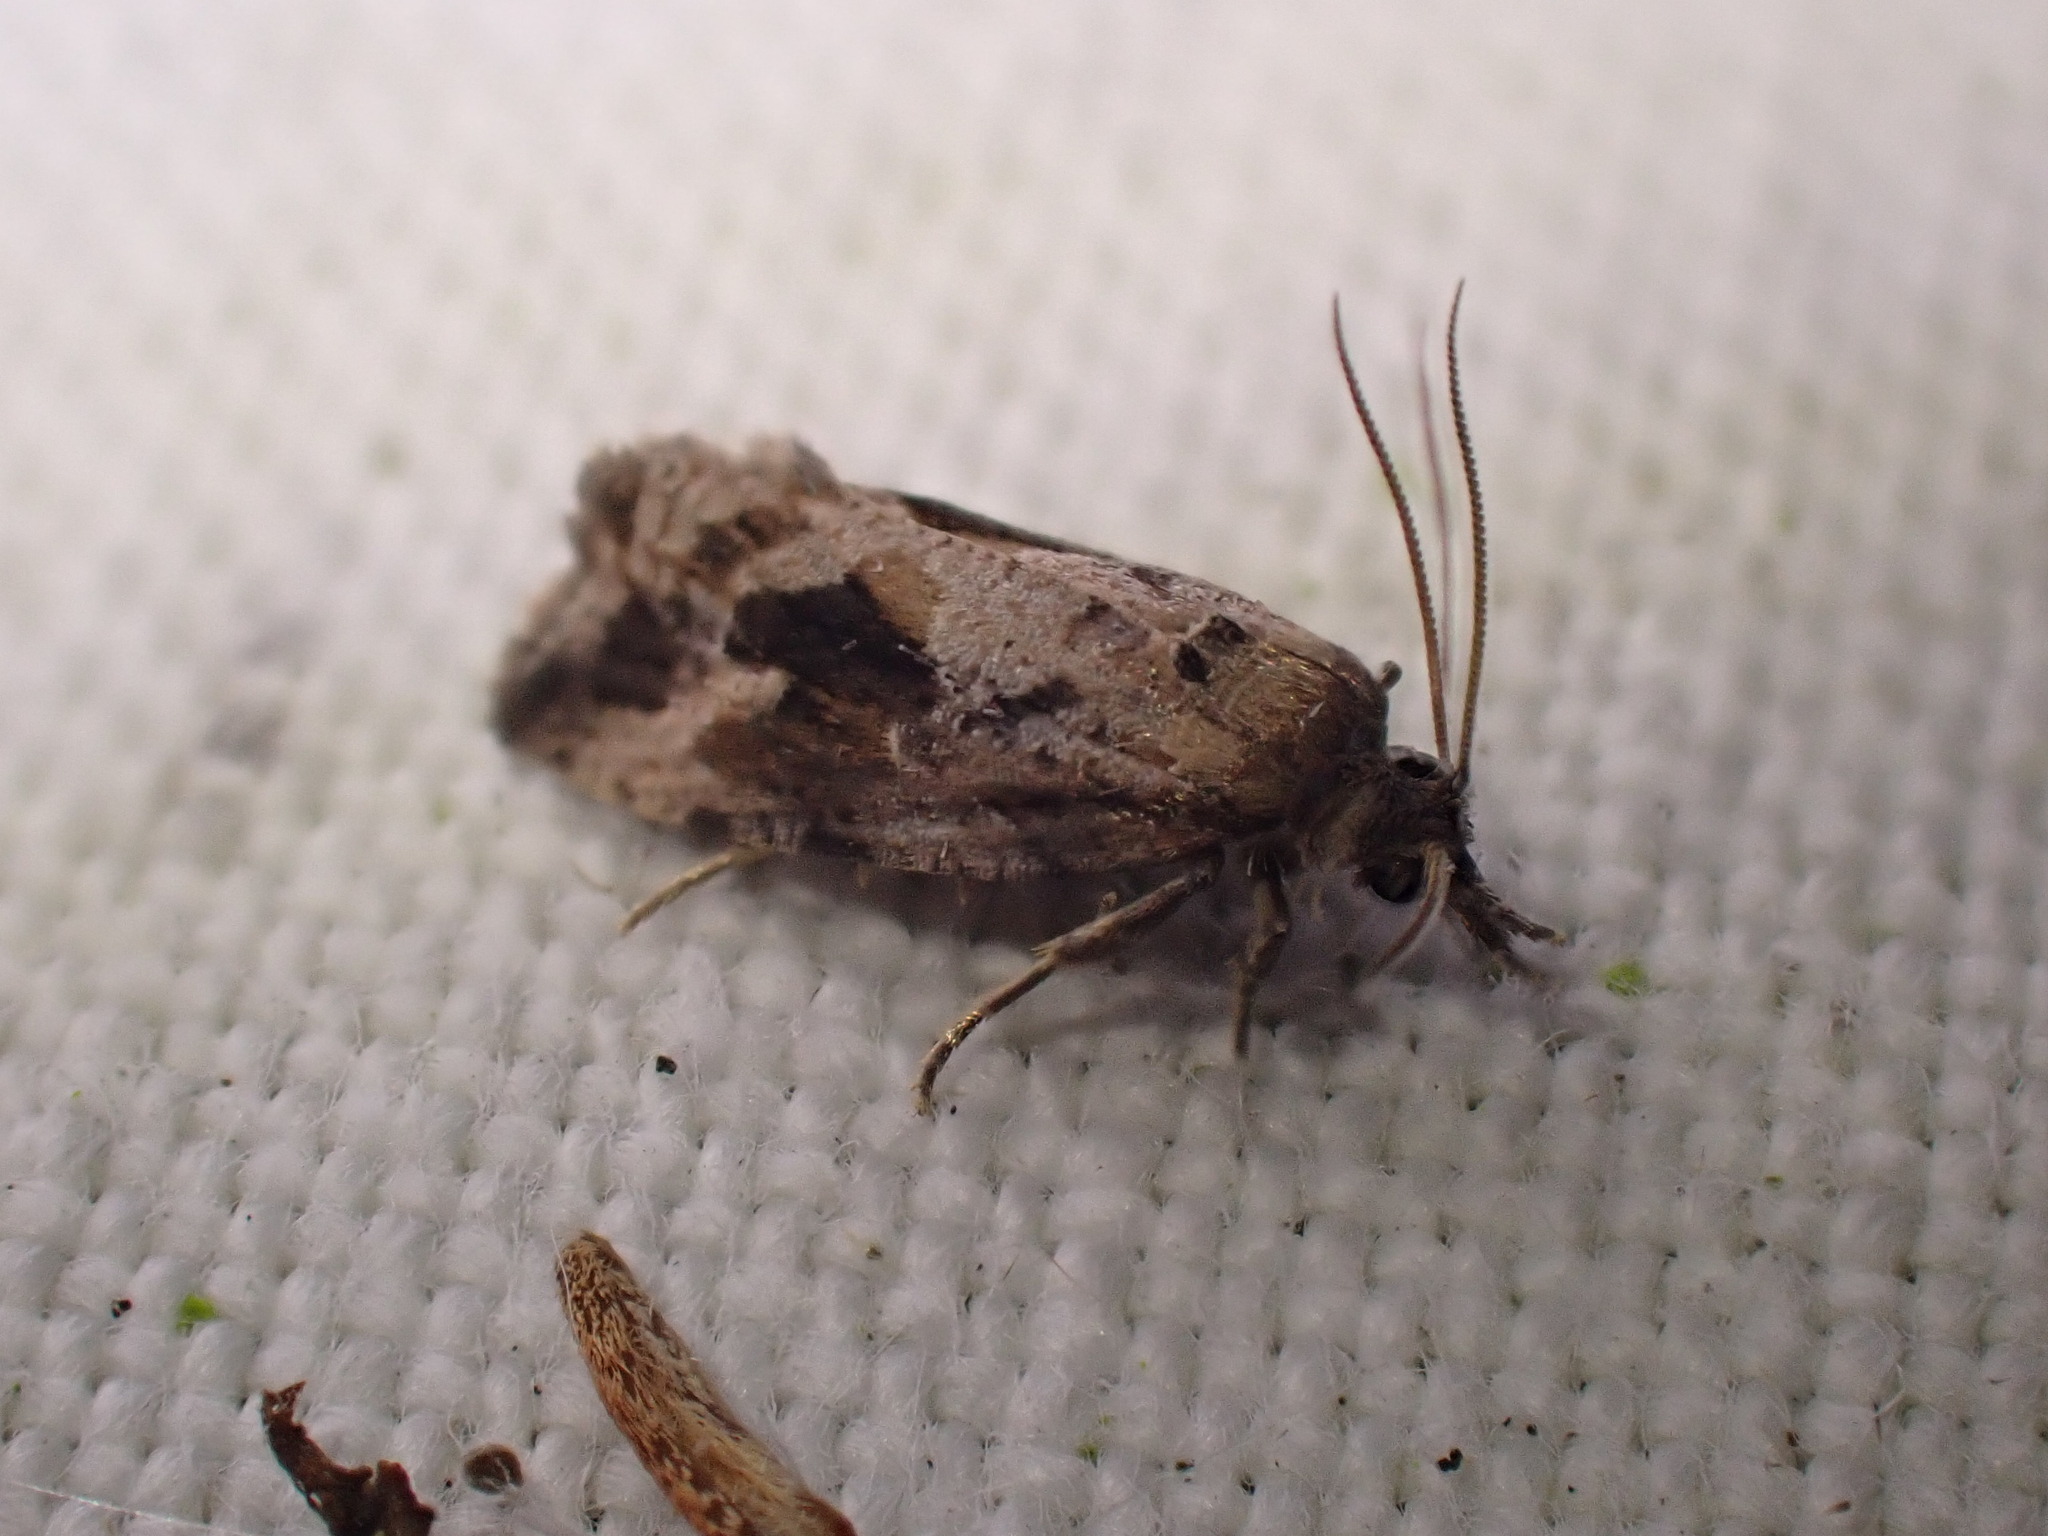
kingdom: Animalia
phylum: Arthropoda
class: Insecta
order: Lepidoptera
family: Tortricidae
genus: Endothenia
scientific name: Endothenia quadrimaculana
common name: Tortricid moth
